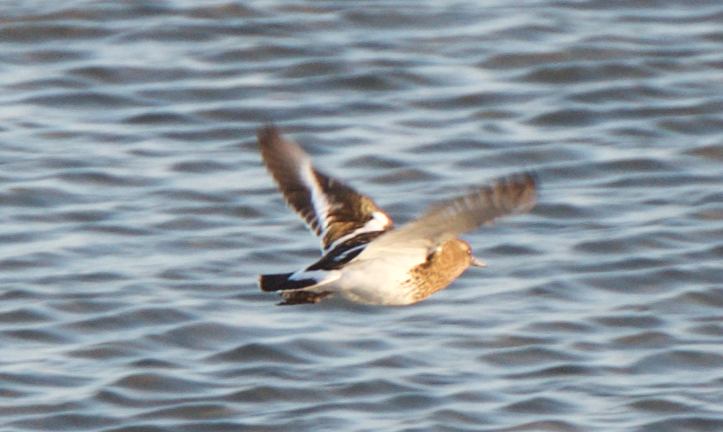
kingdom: Animalia
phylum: Chordata
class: Aves
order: Charadriiformes
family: Scolopacidae
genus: Arenaria
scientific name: Arenaria melanocephala
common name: Black turnstone
